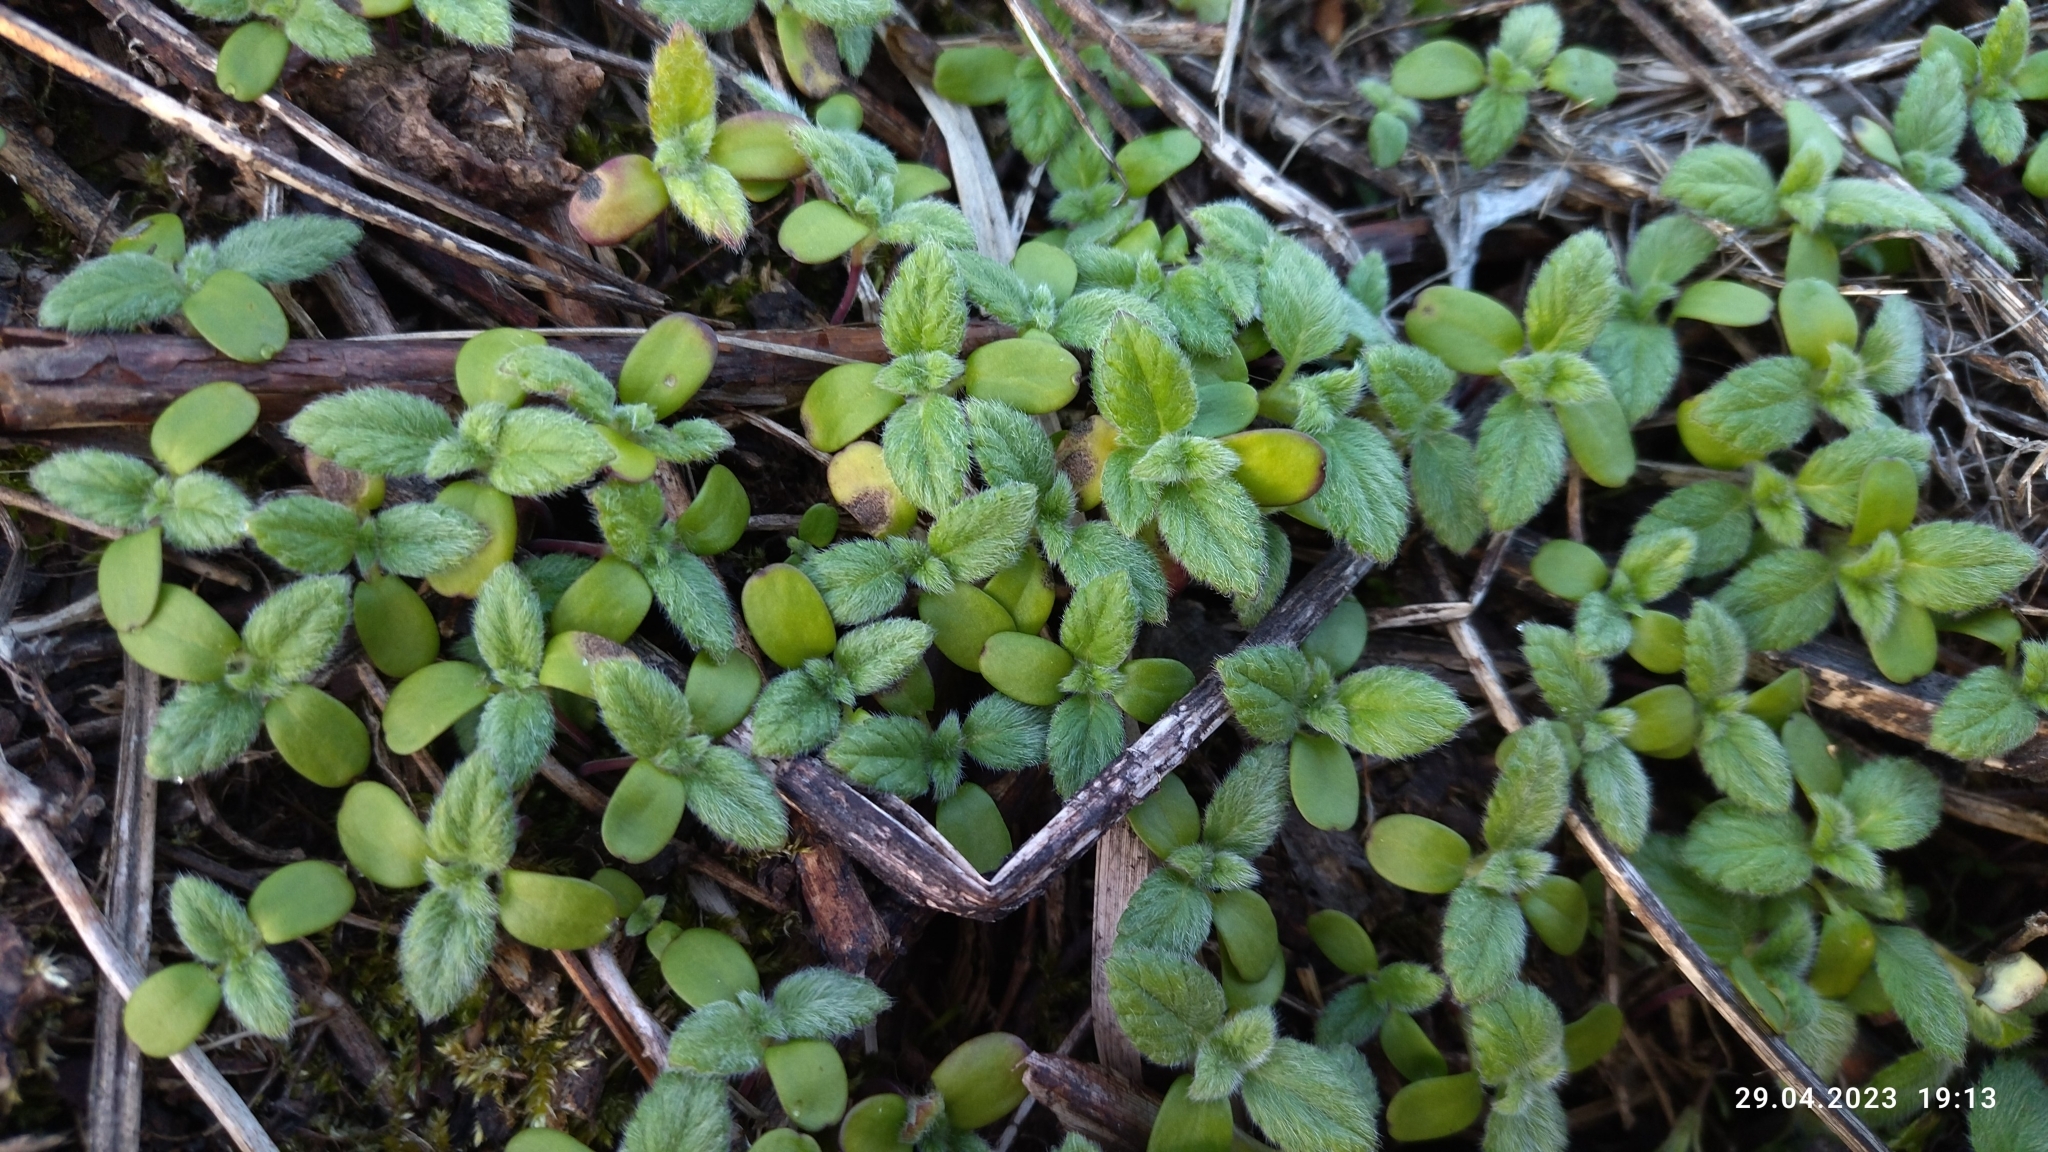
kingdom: Plantae
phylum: Tracheophyta
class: Magnoliopsida
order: Lamiales
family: Lamiaceae
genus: Galeopsis
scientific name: Galeopsis
